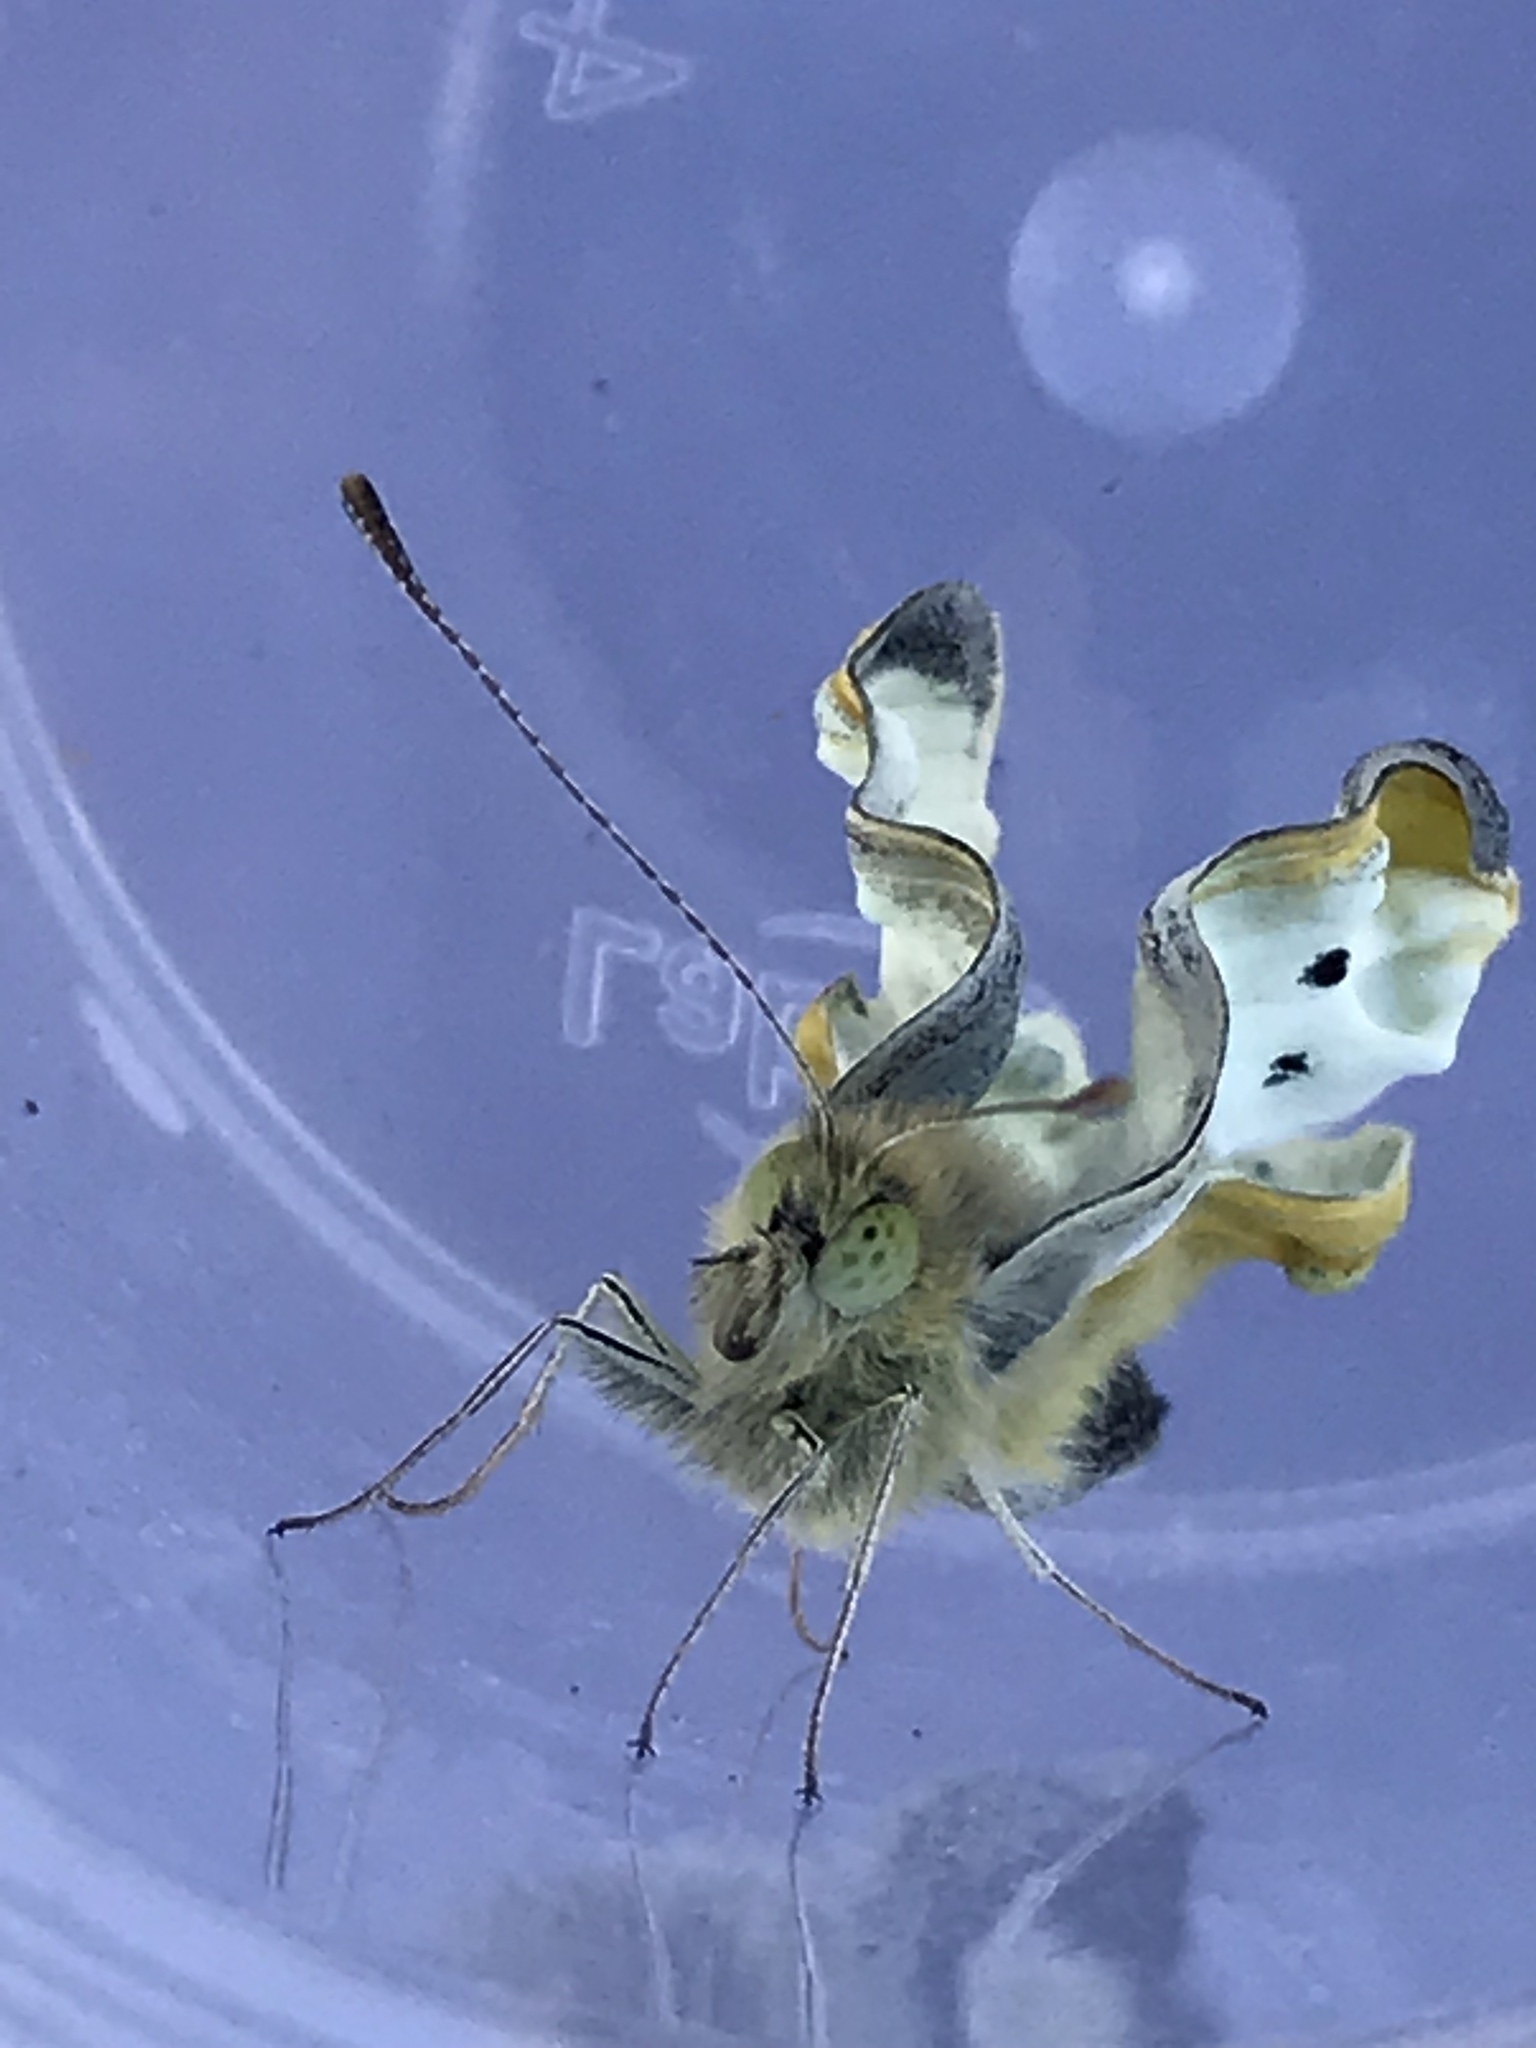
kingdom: Animalia
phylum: Arthropoda
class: Insecta
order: Lepidoptera
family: Pieridae
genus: Pieris
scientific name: Pieris rapae
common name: Small white
